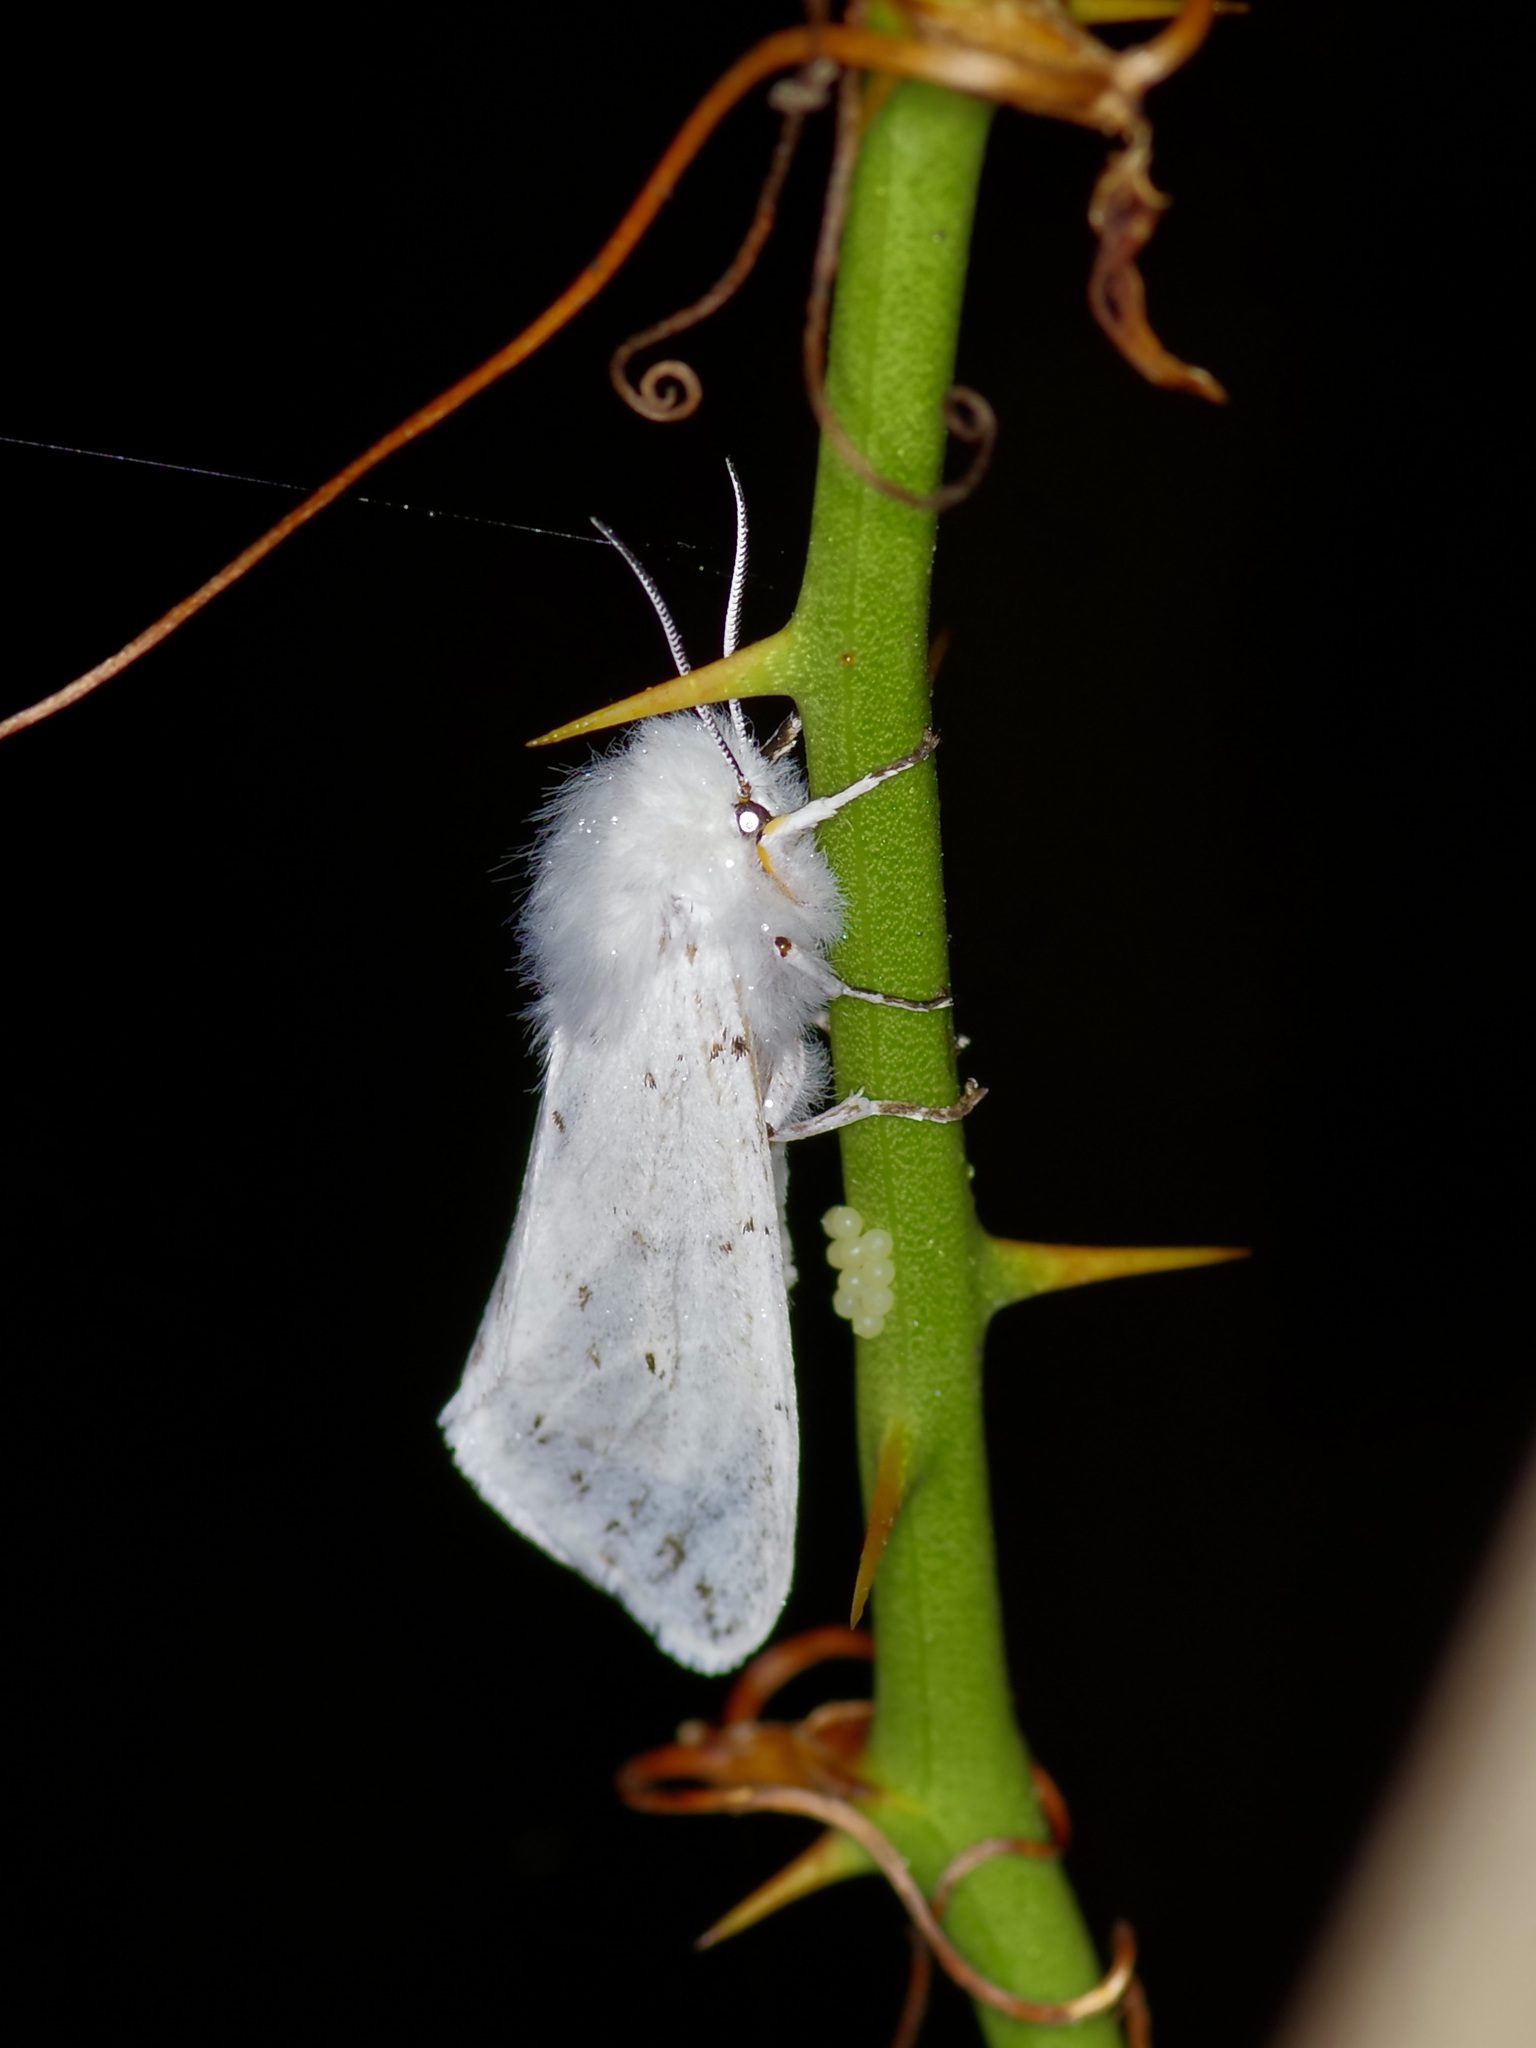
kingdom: Animalia
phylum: Arthropoda
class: Insecta
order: Lepidoptera
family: Erebidae
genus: Spilosoma
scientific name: Spilosoma dubia
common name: Dubious tiger moth
